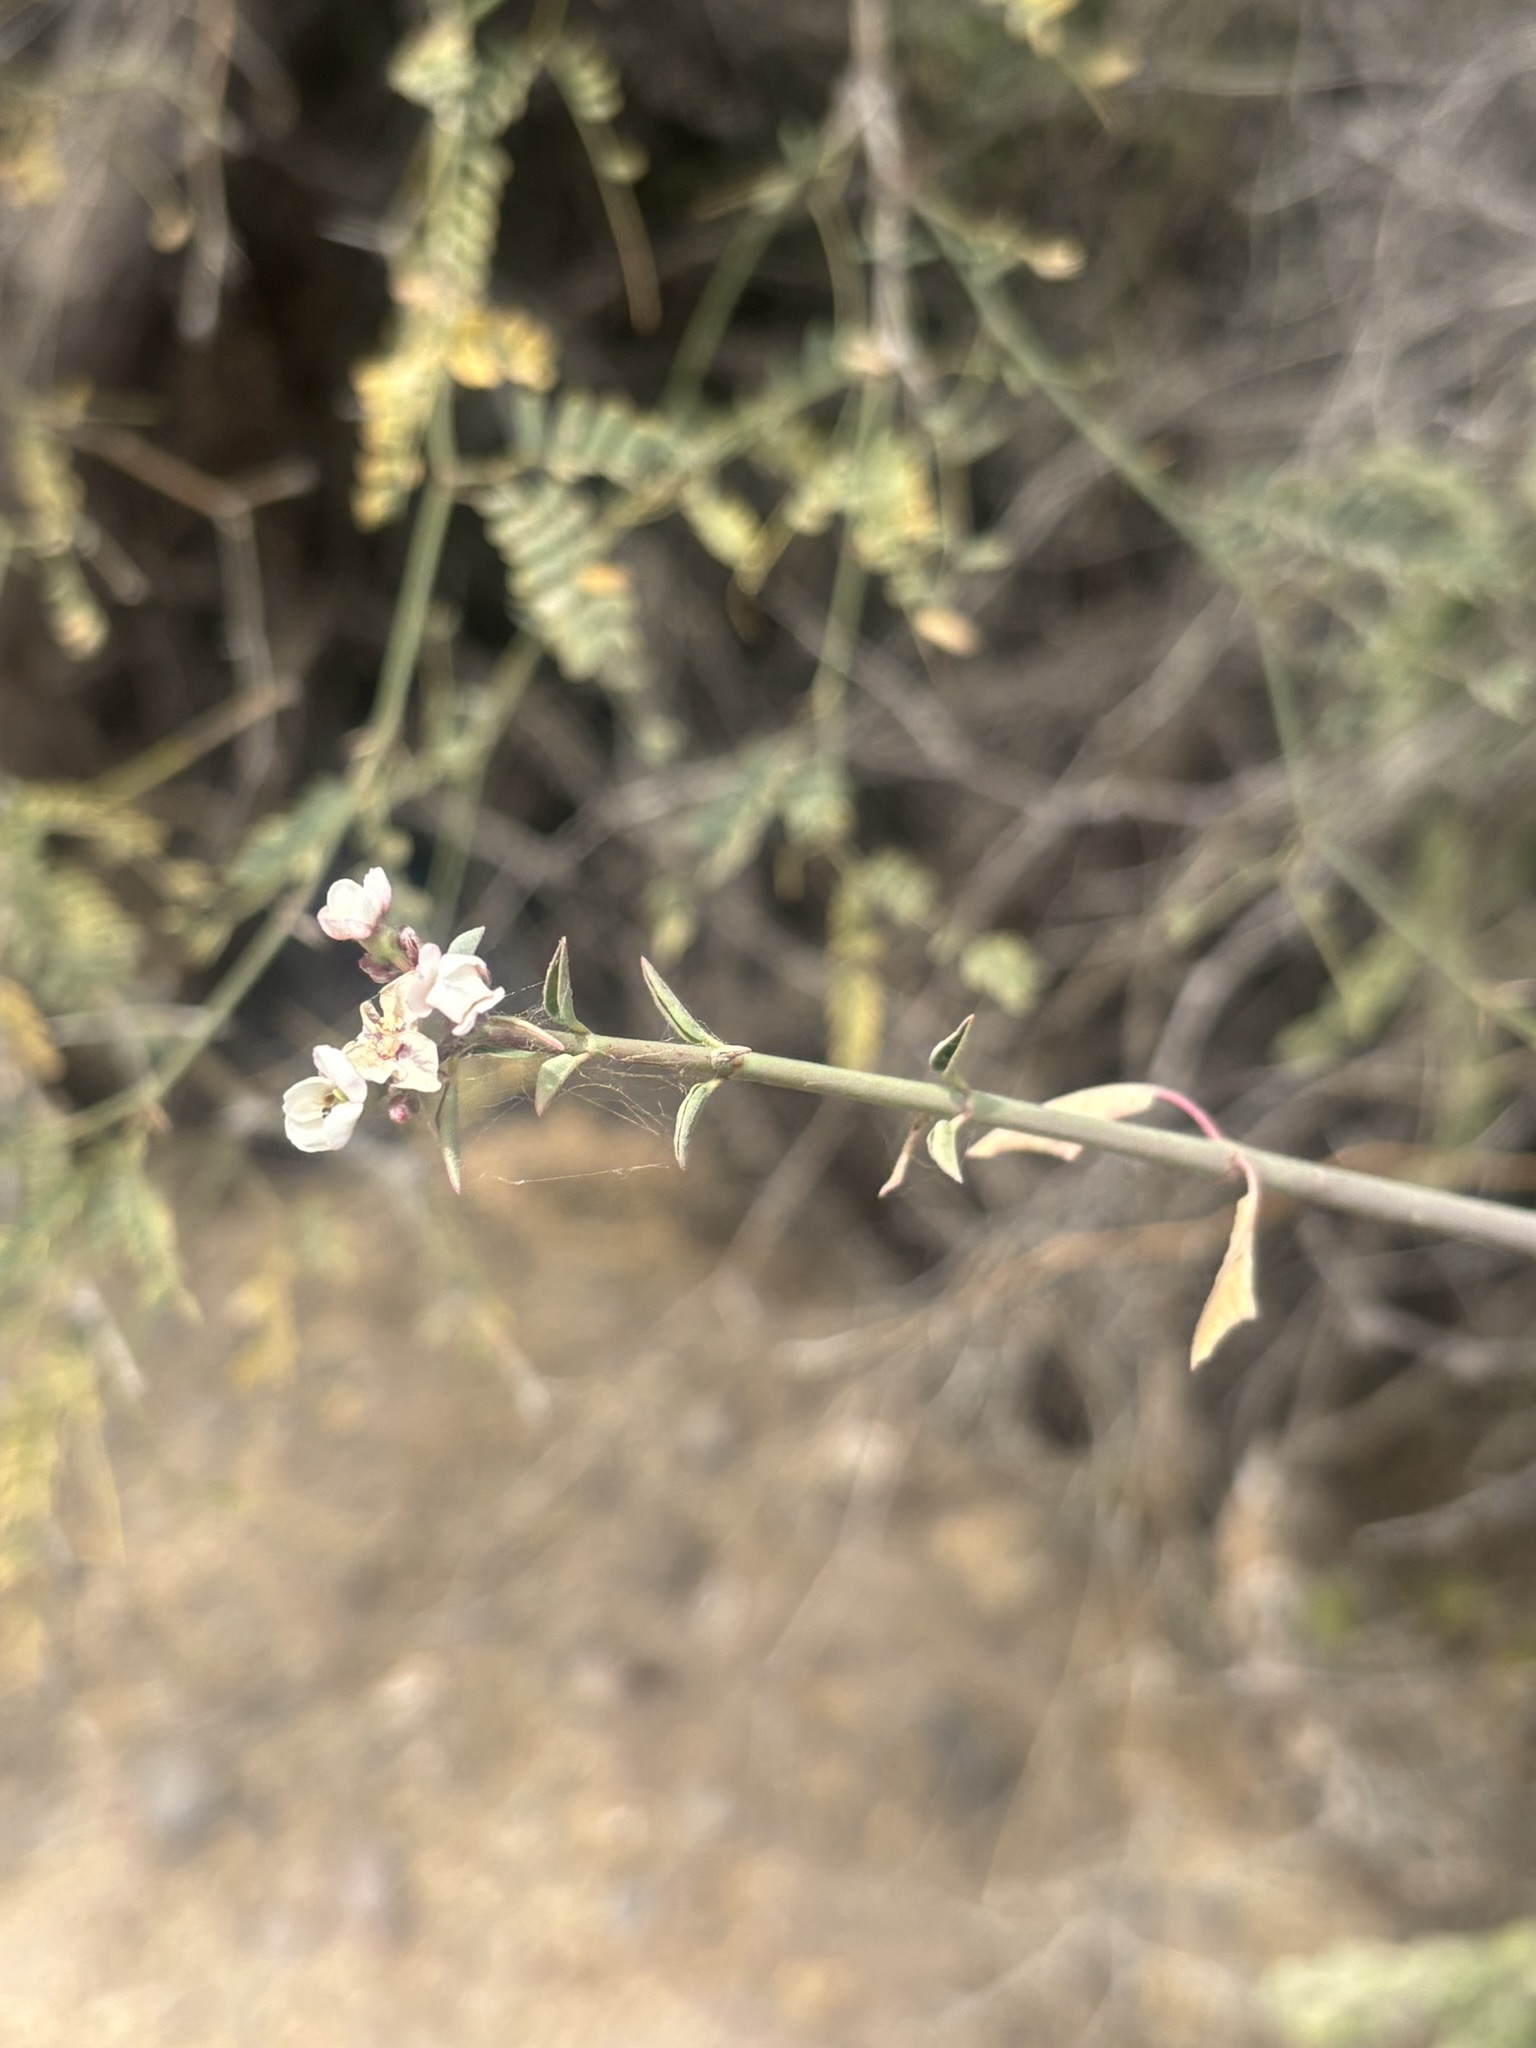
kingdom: Plantae
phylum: Tracheophyta
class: Magnoliopsida
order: Malpighiales
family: Euphorbiaceae
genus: Euphorbia
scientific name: Euphorbia xanti
